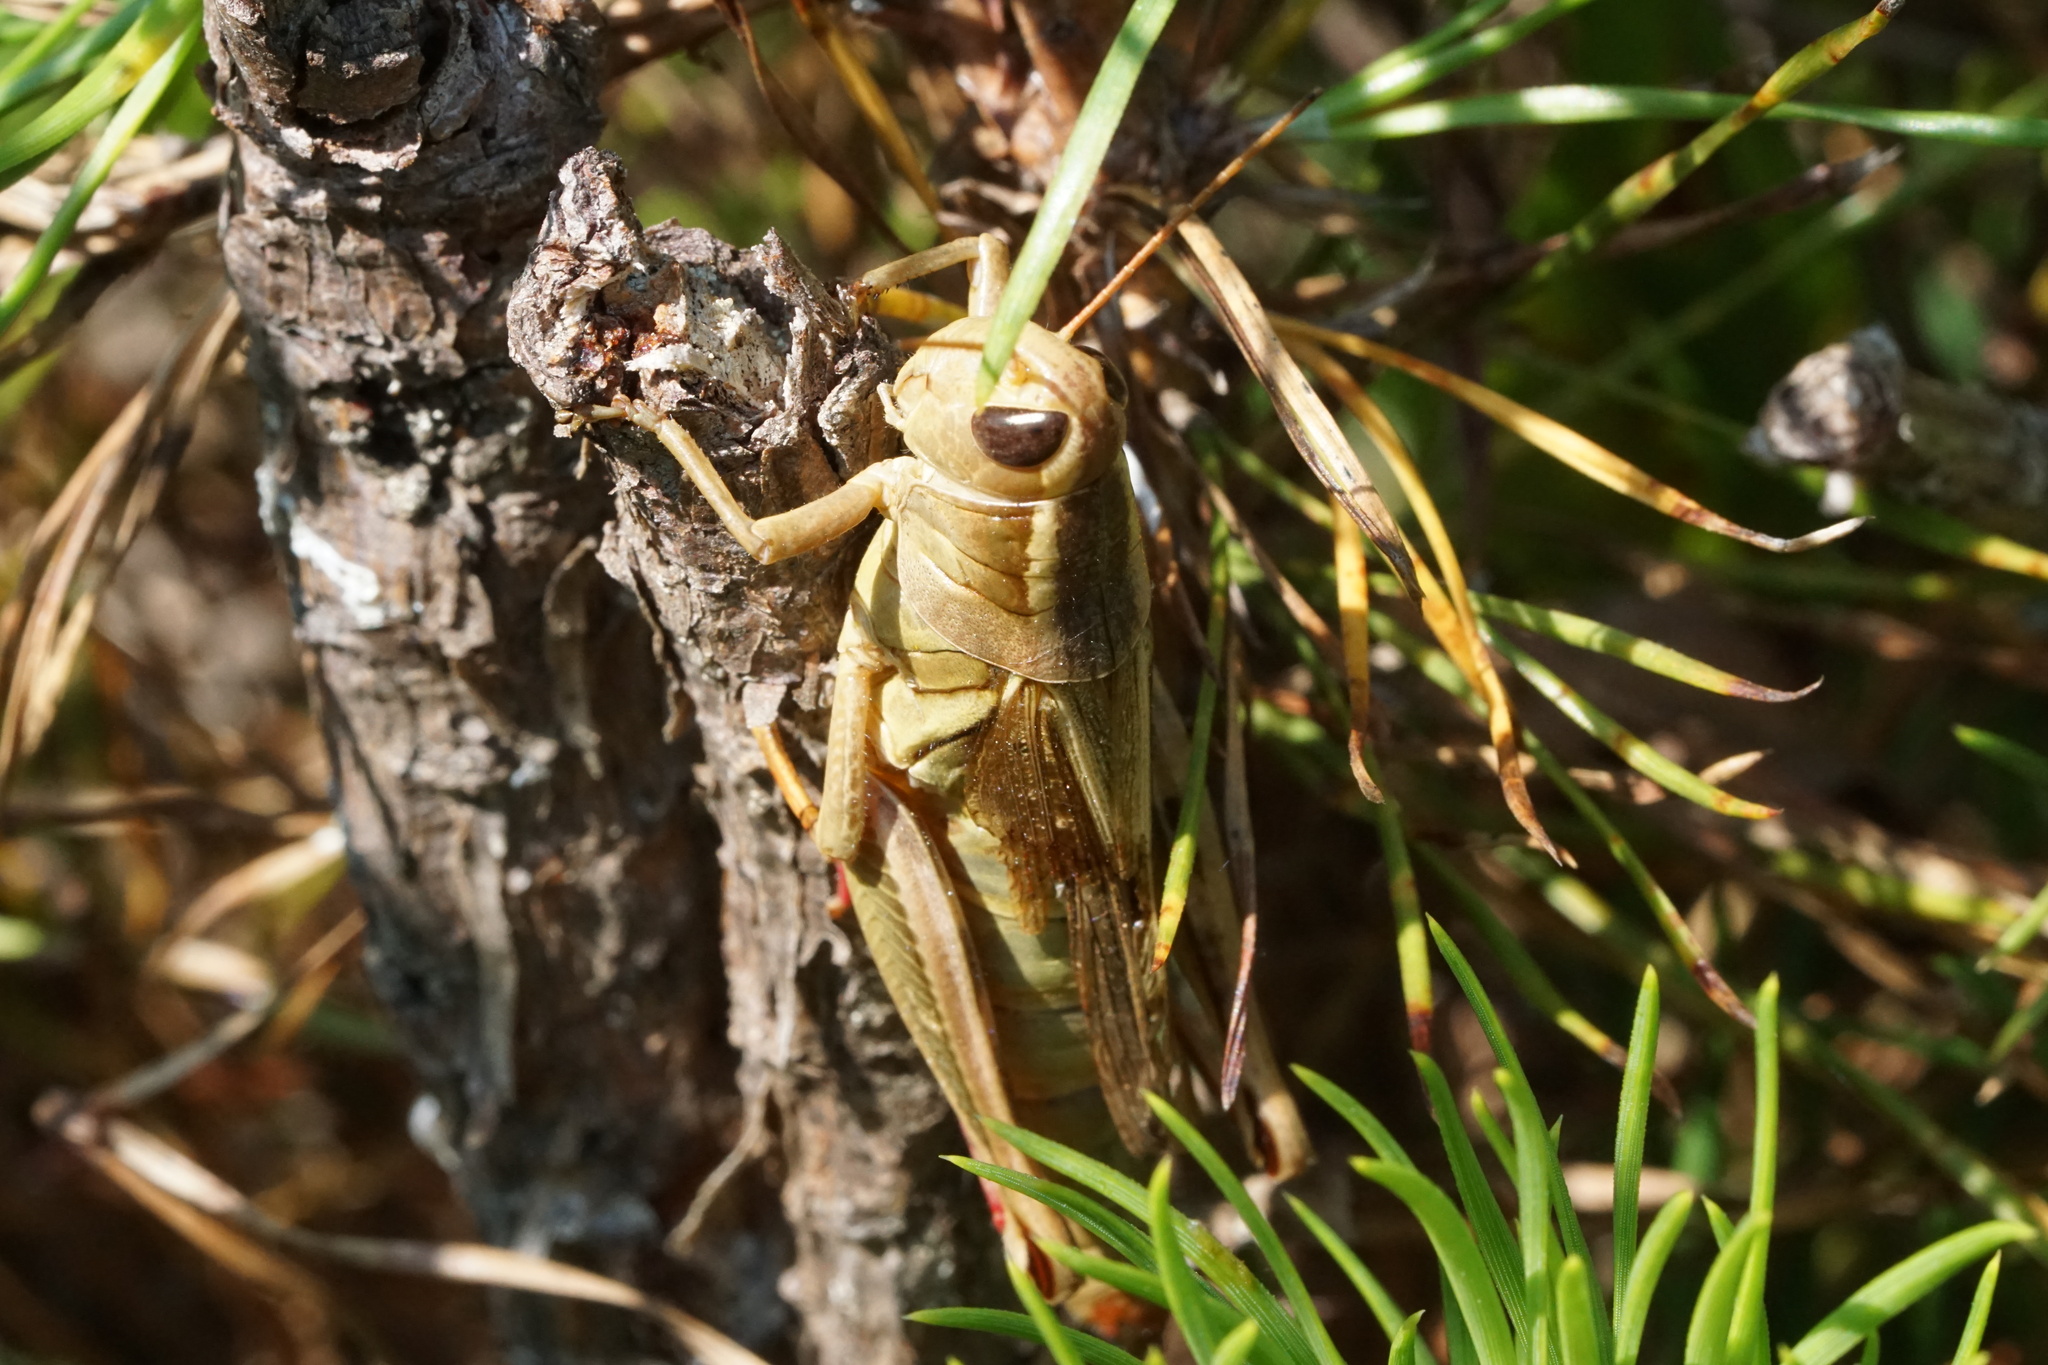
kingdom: Animalia
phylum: Arthropoda
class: Insecta
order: Orthoptera
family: Acrididae
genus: Melanoplus
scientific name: Melanoplus bivittatus
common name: Two-striped grasshopper
